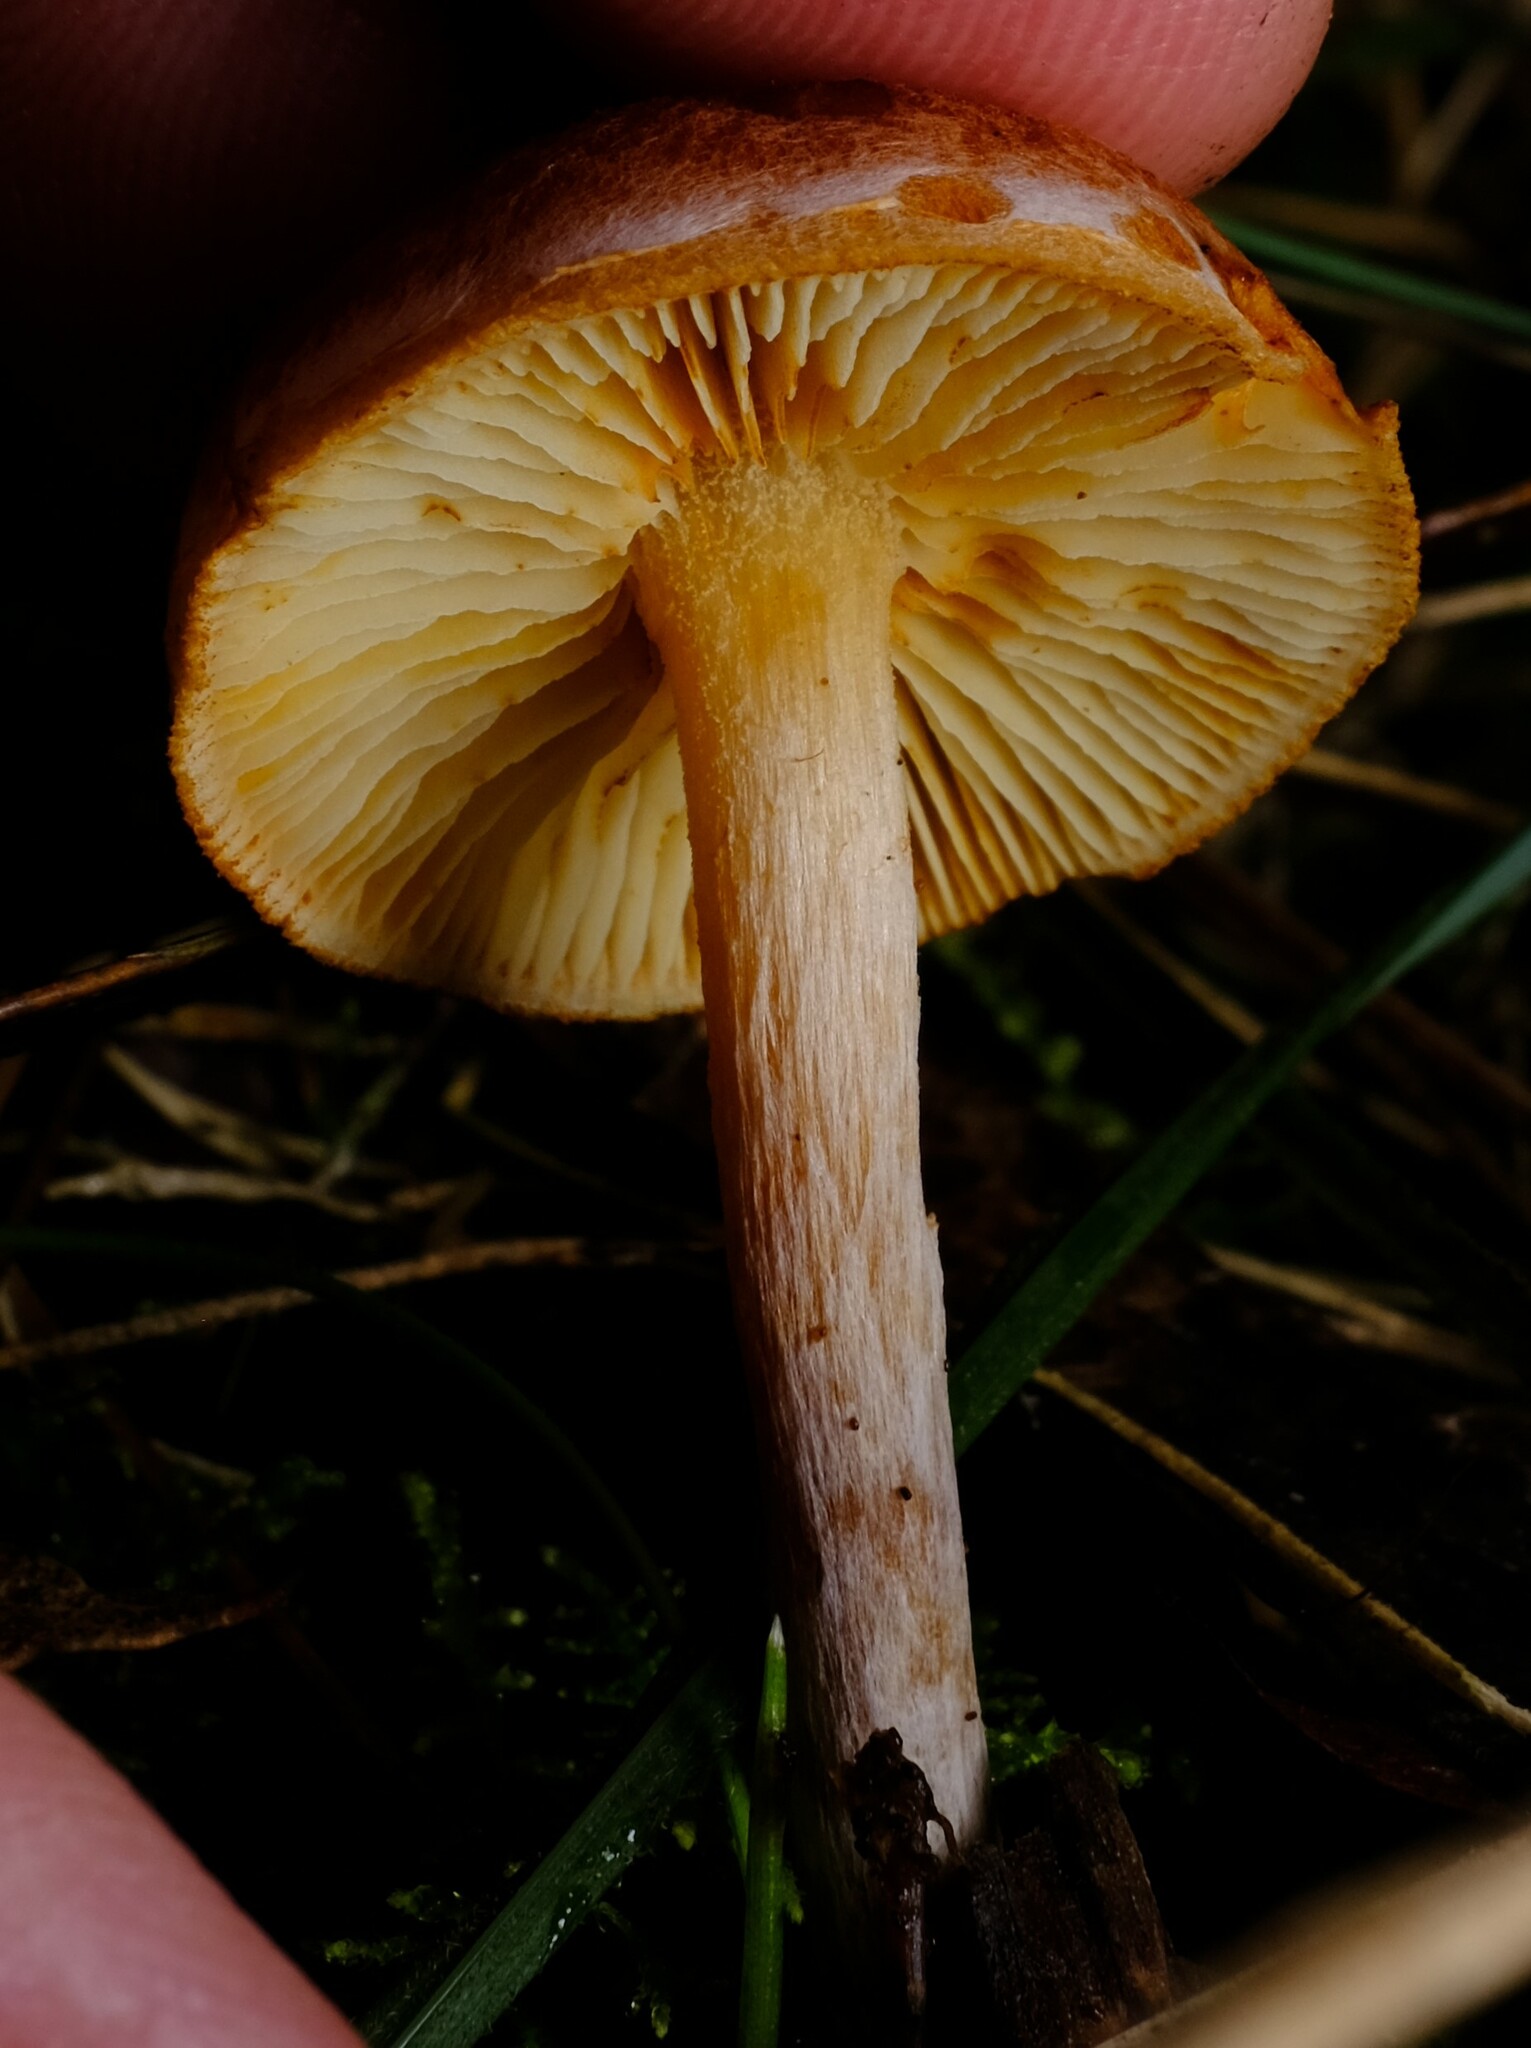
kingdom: Fungi
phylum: Basidiomycota
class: Agaricomycetes
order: Agaricales
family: Hymenogastraceae
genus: Gymnopilus
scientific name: Gymnopilus allantopus
